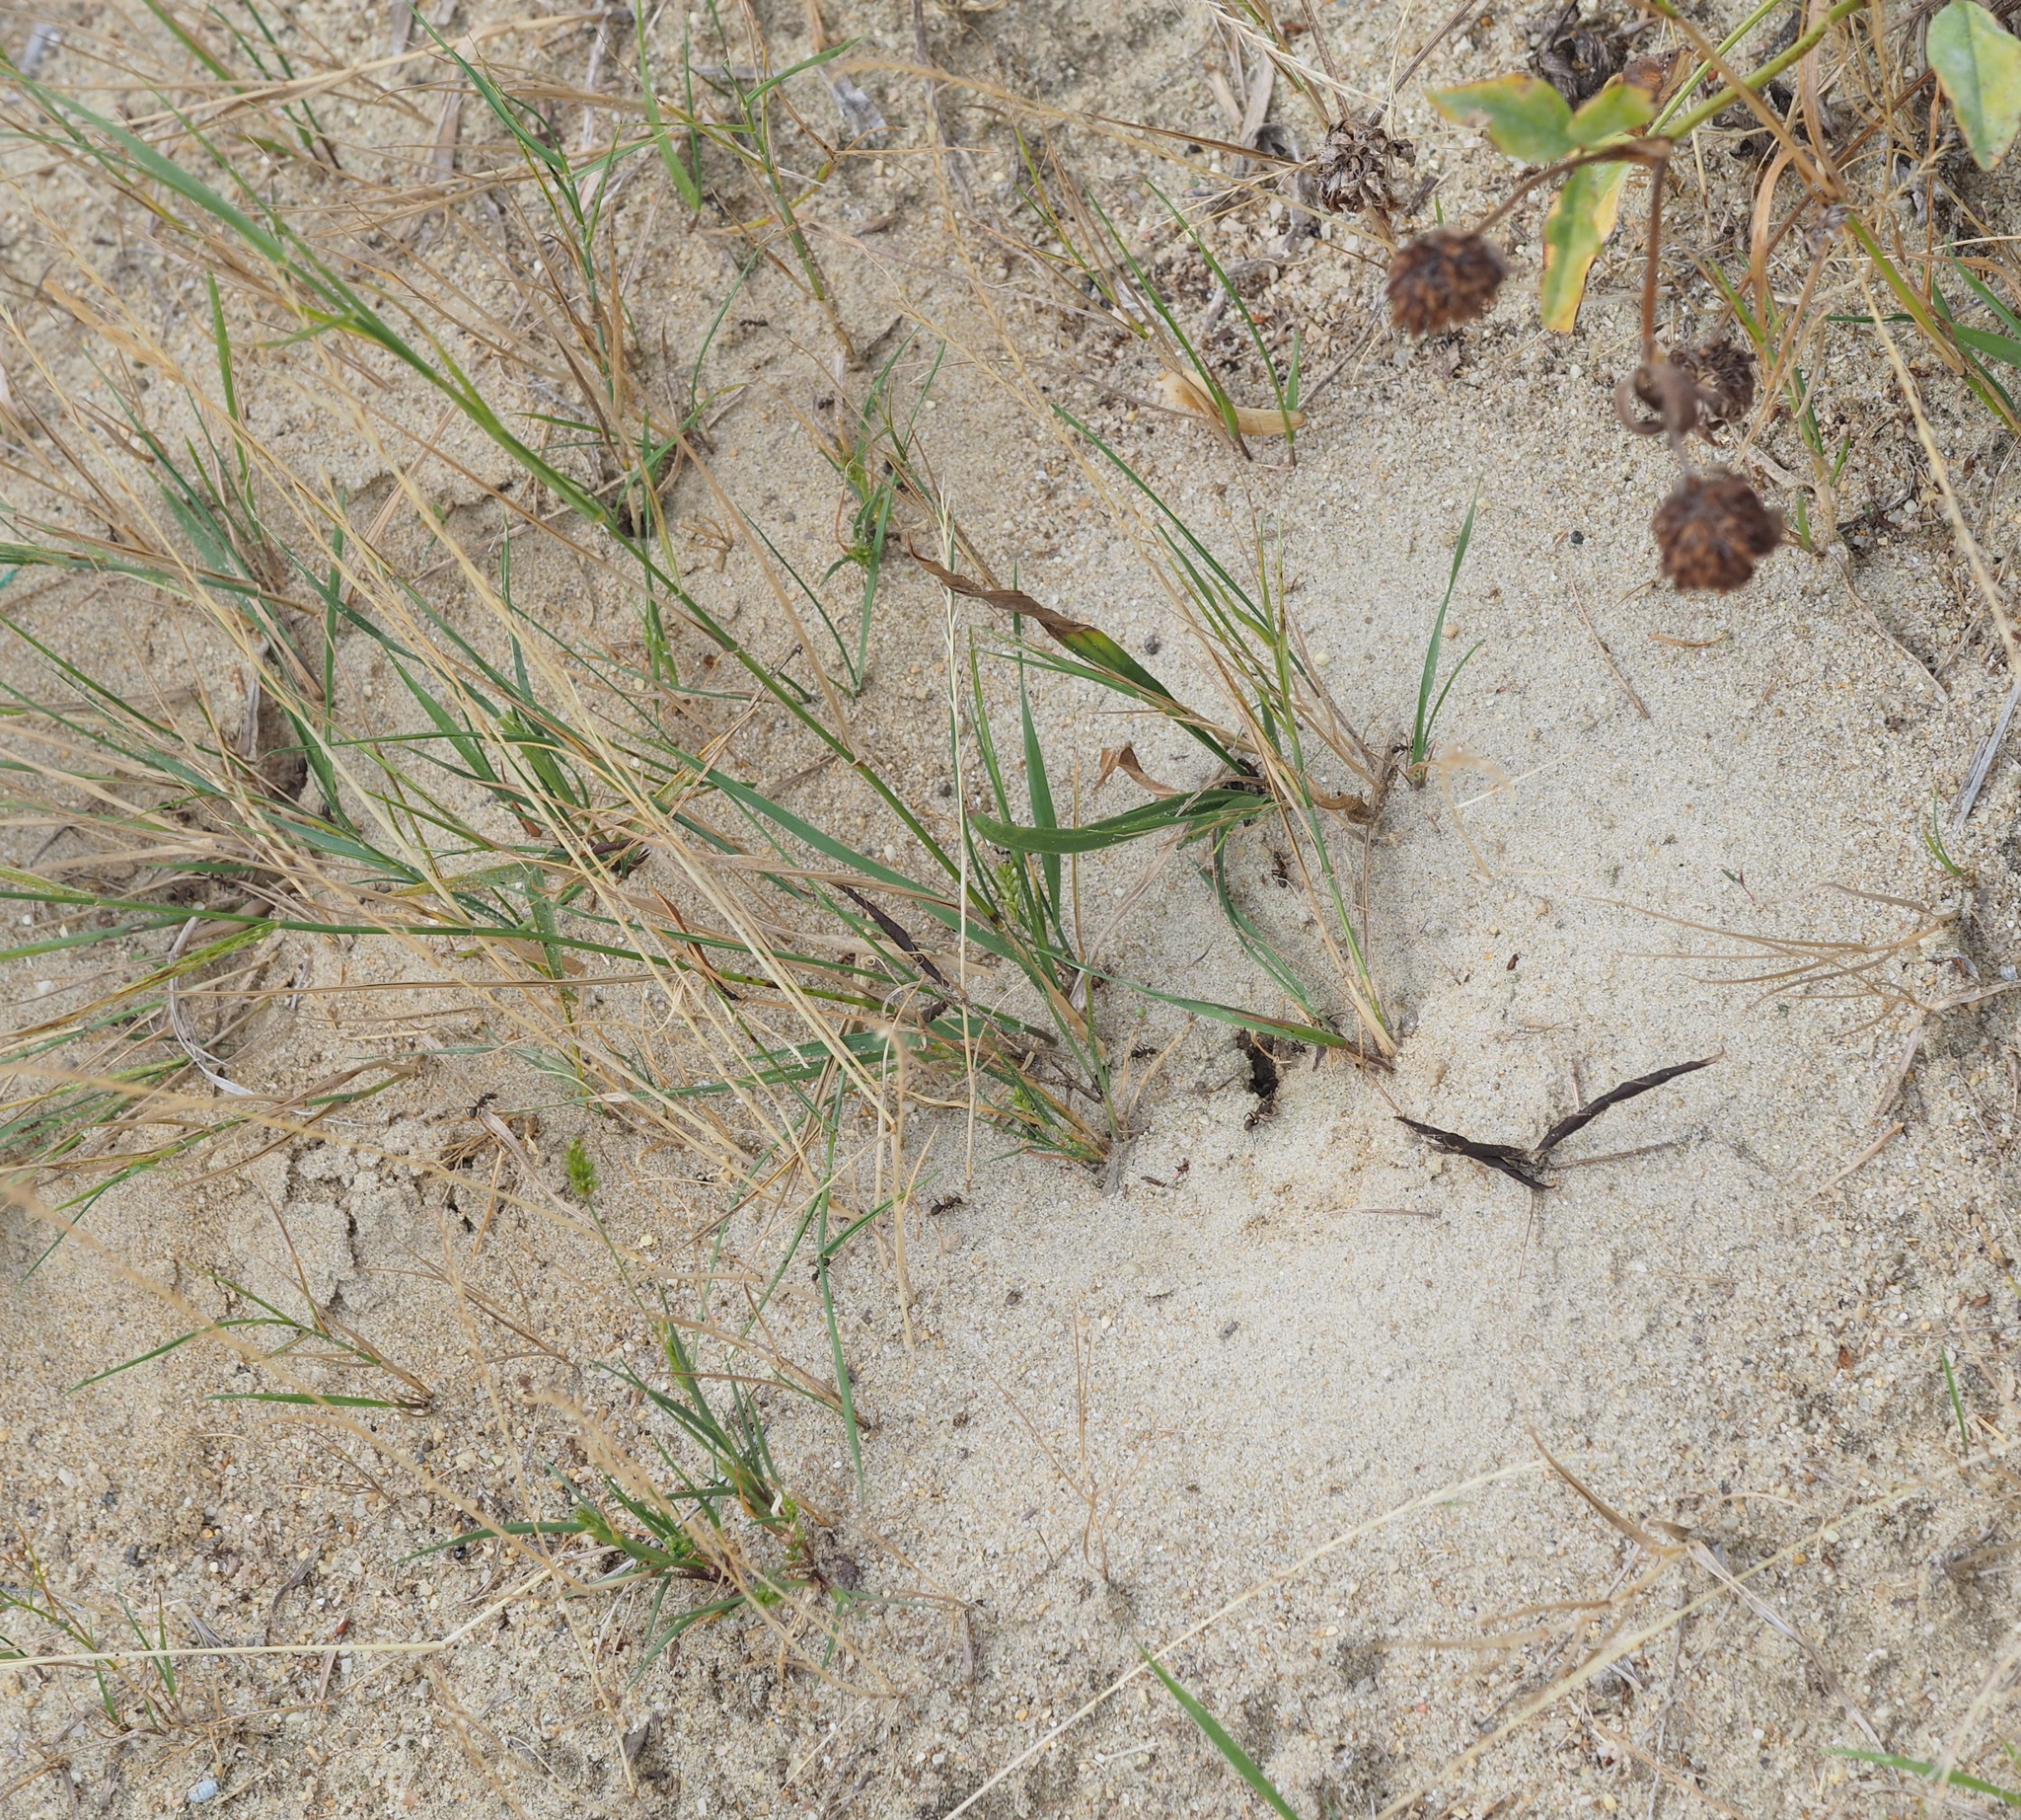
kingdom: Animalia
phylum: Arthropoda
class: Insecta
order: Hymenoptera
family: Formicidae
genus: Formica
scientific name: Formica cunicularia
